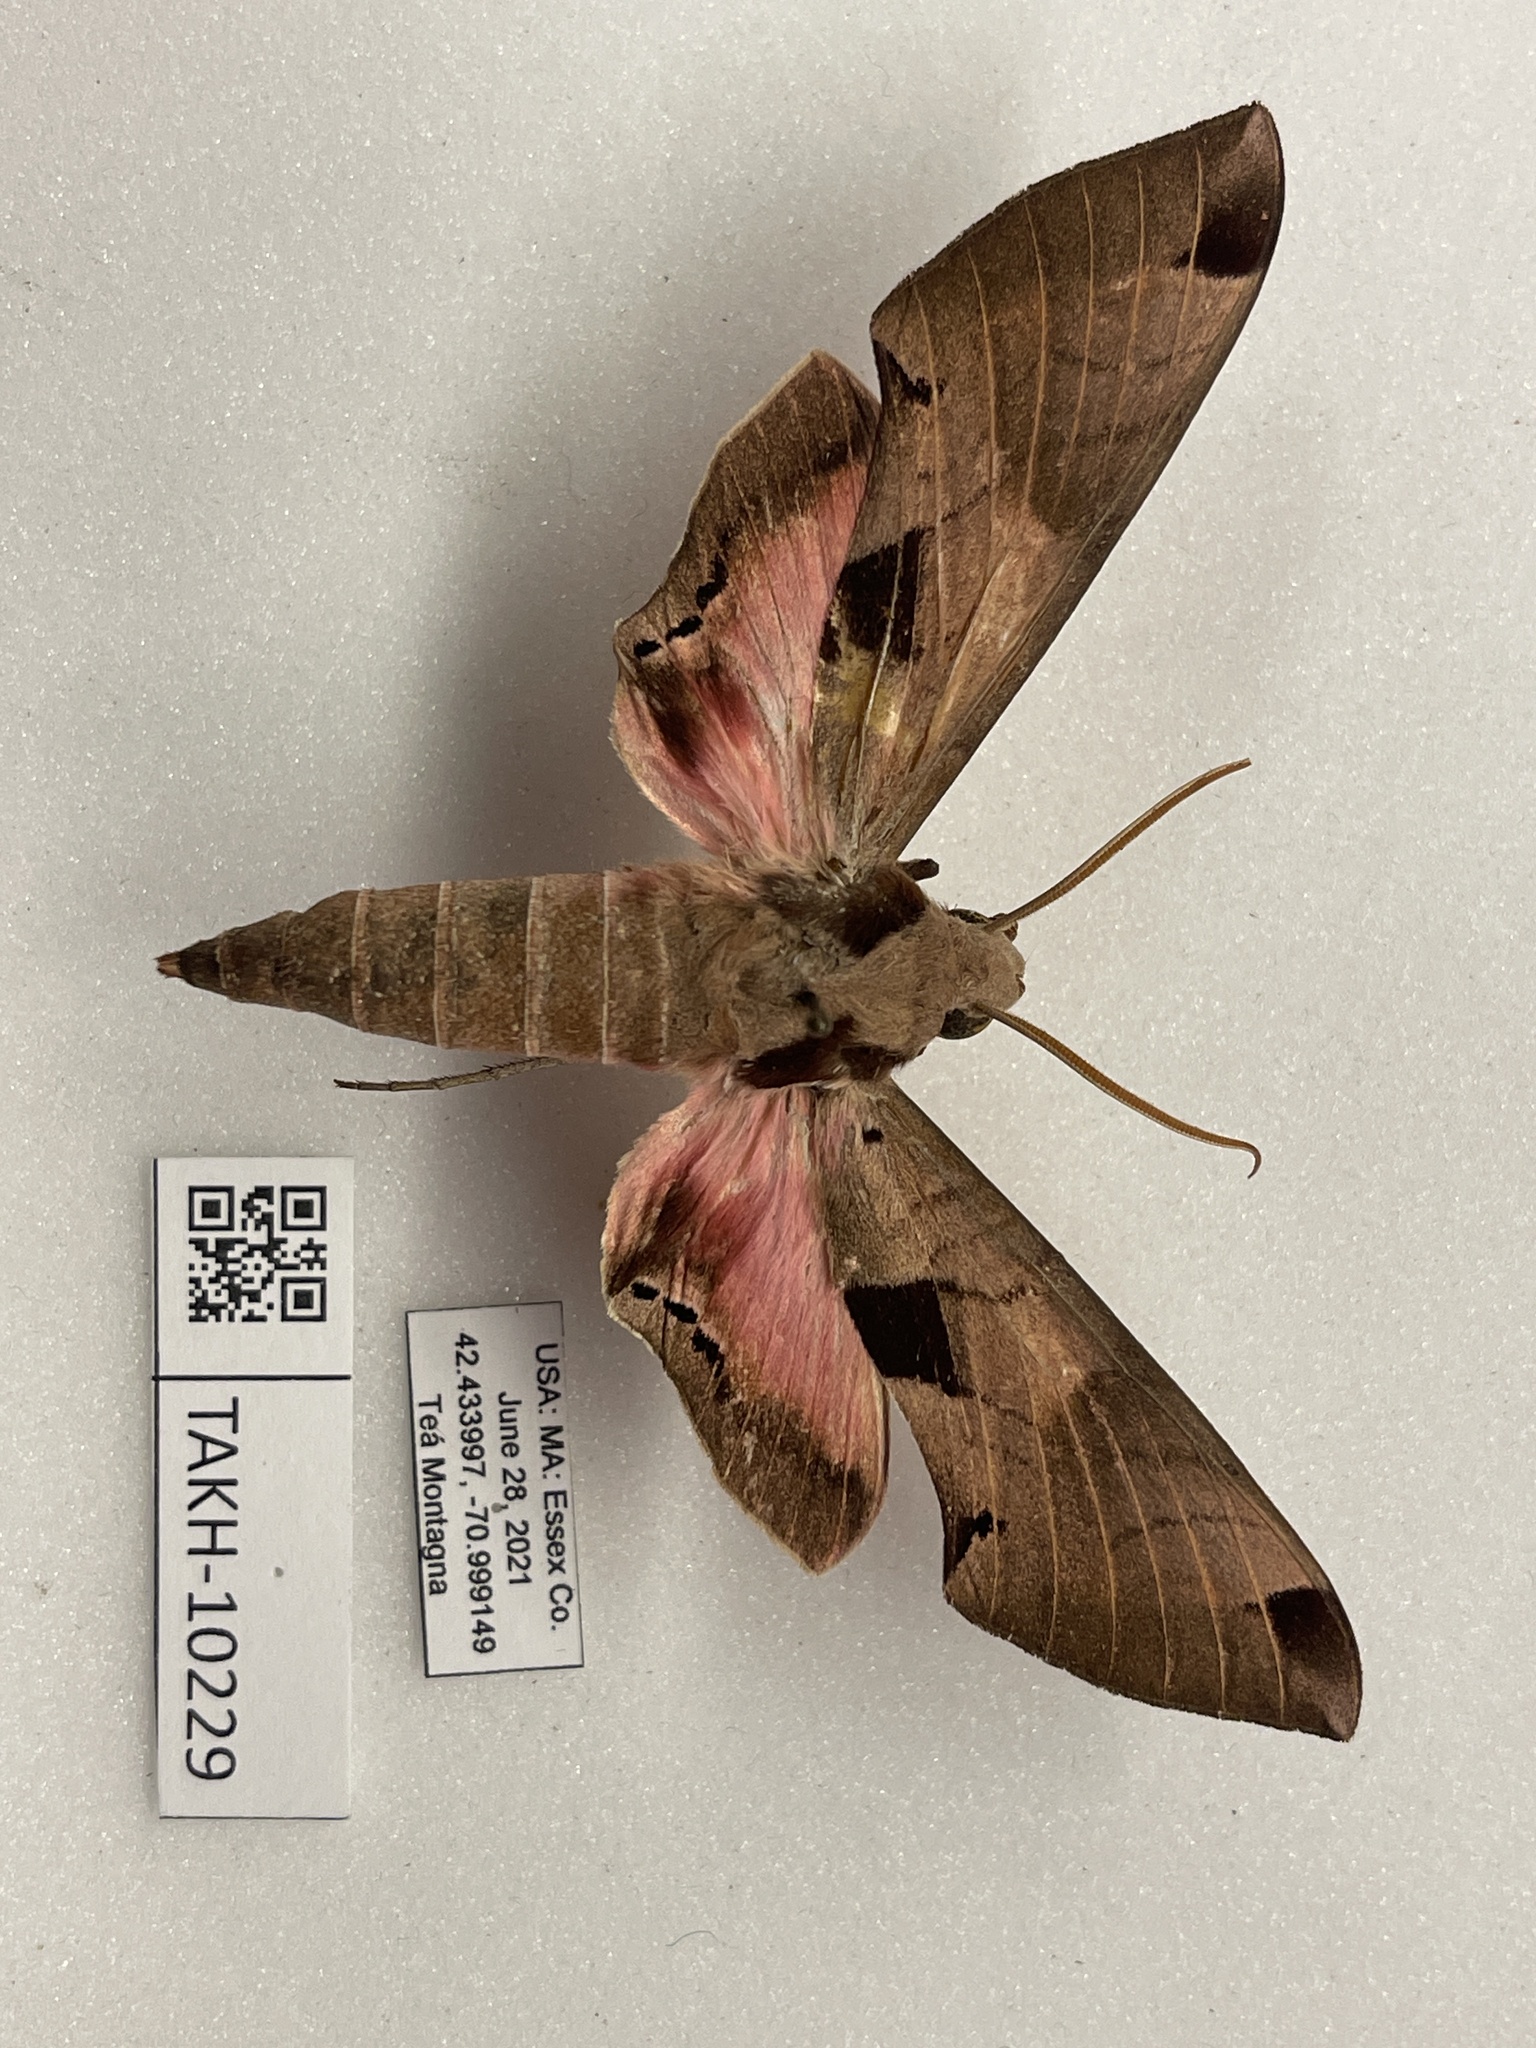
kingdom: Animalia
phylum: Arthropoda
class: Insecta
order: Lepidoptera
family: Sphingidae
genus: Eumorpha
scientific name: Eumorpha achemon
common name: Achemon sphinx
